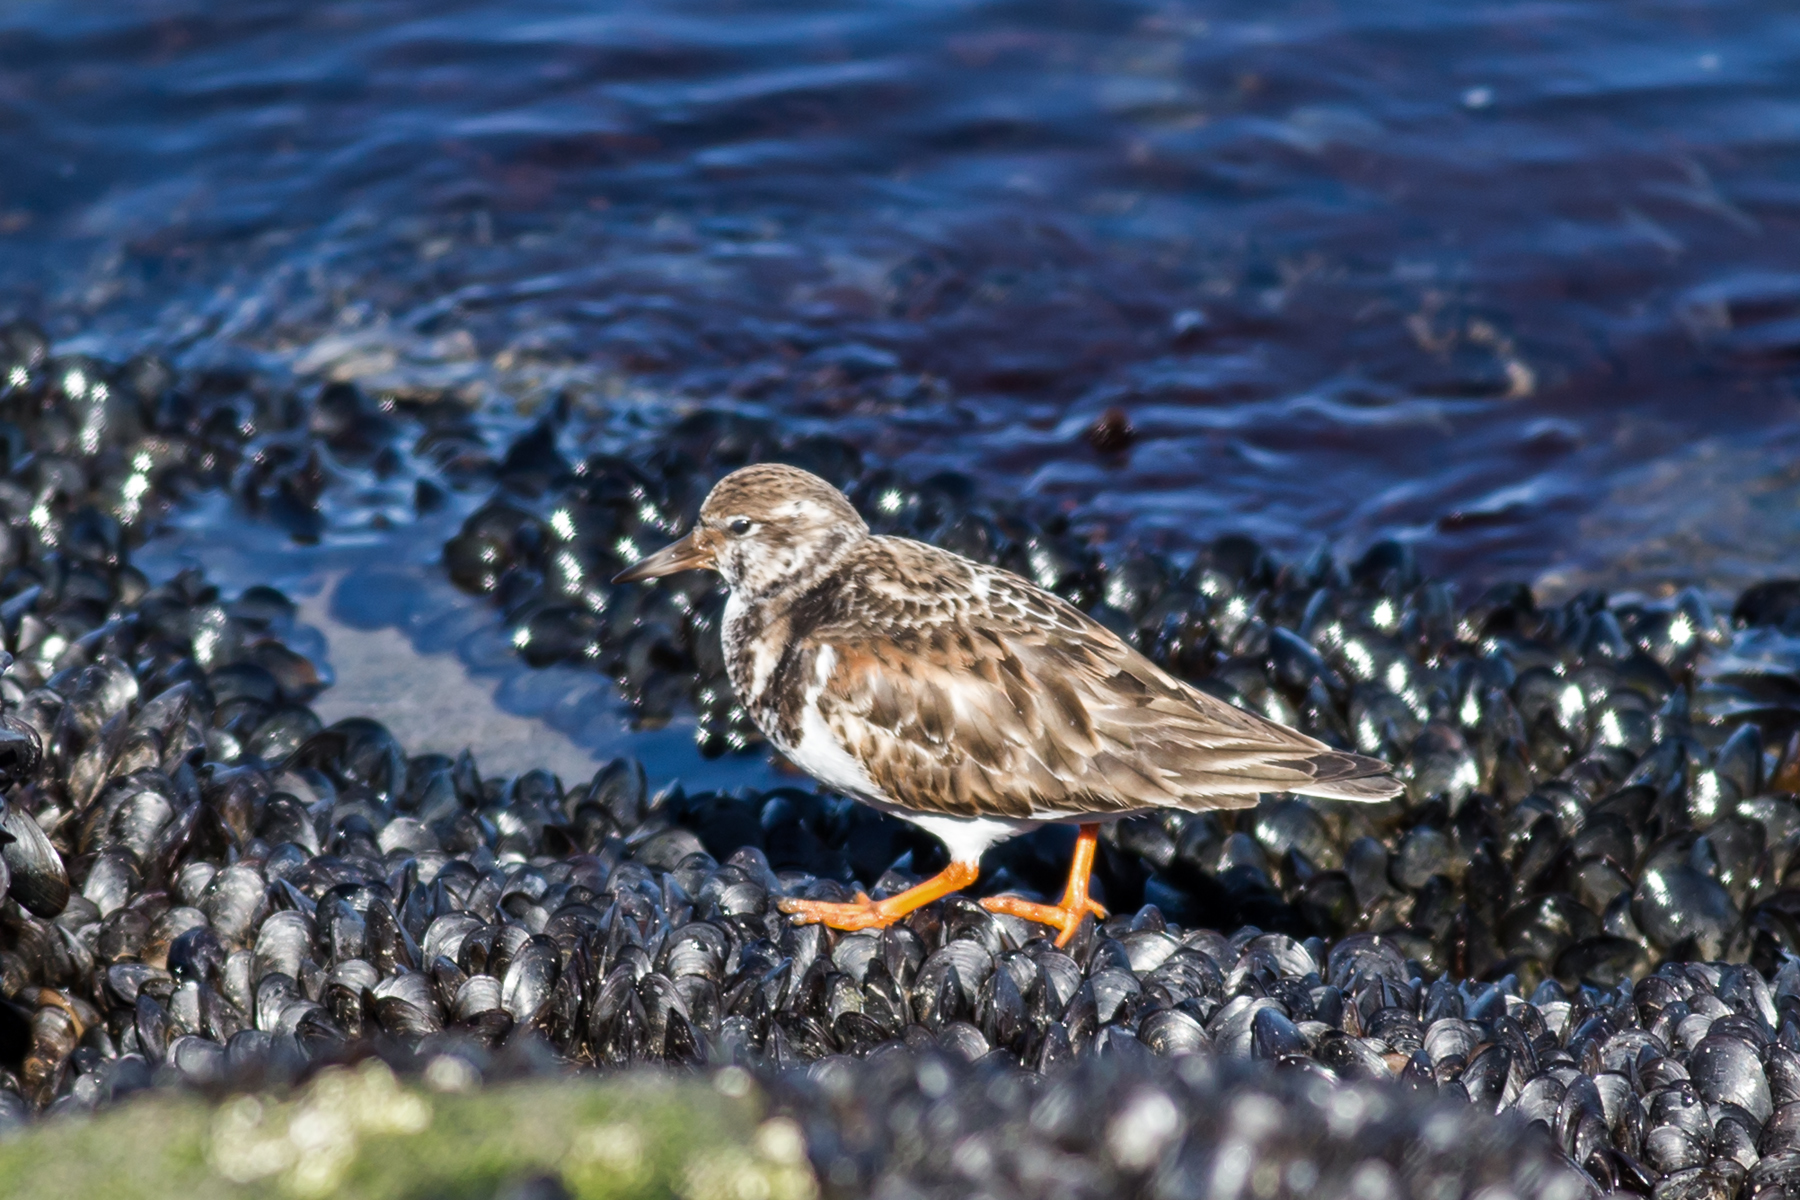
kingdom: Animalia
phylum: Chordata
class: Aves
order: Charadriiformes
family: Scolopacidae
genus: Arenaria
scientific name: Arenaria interpres
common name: Ruddy turnstone
